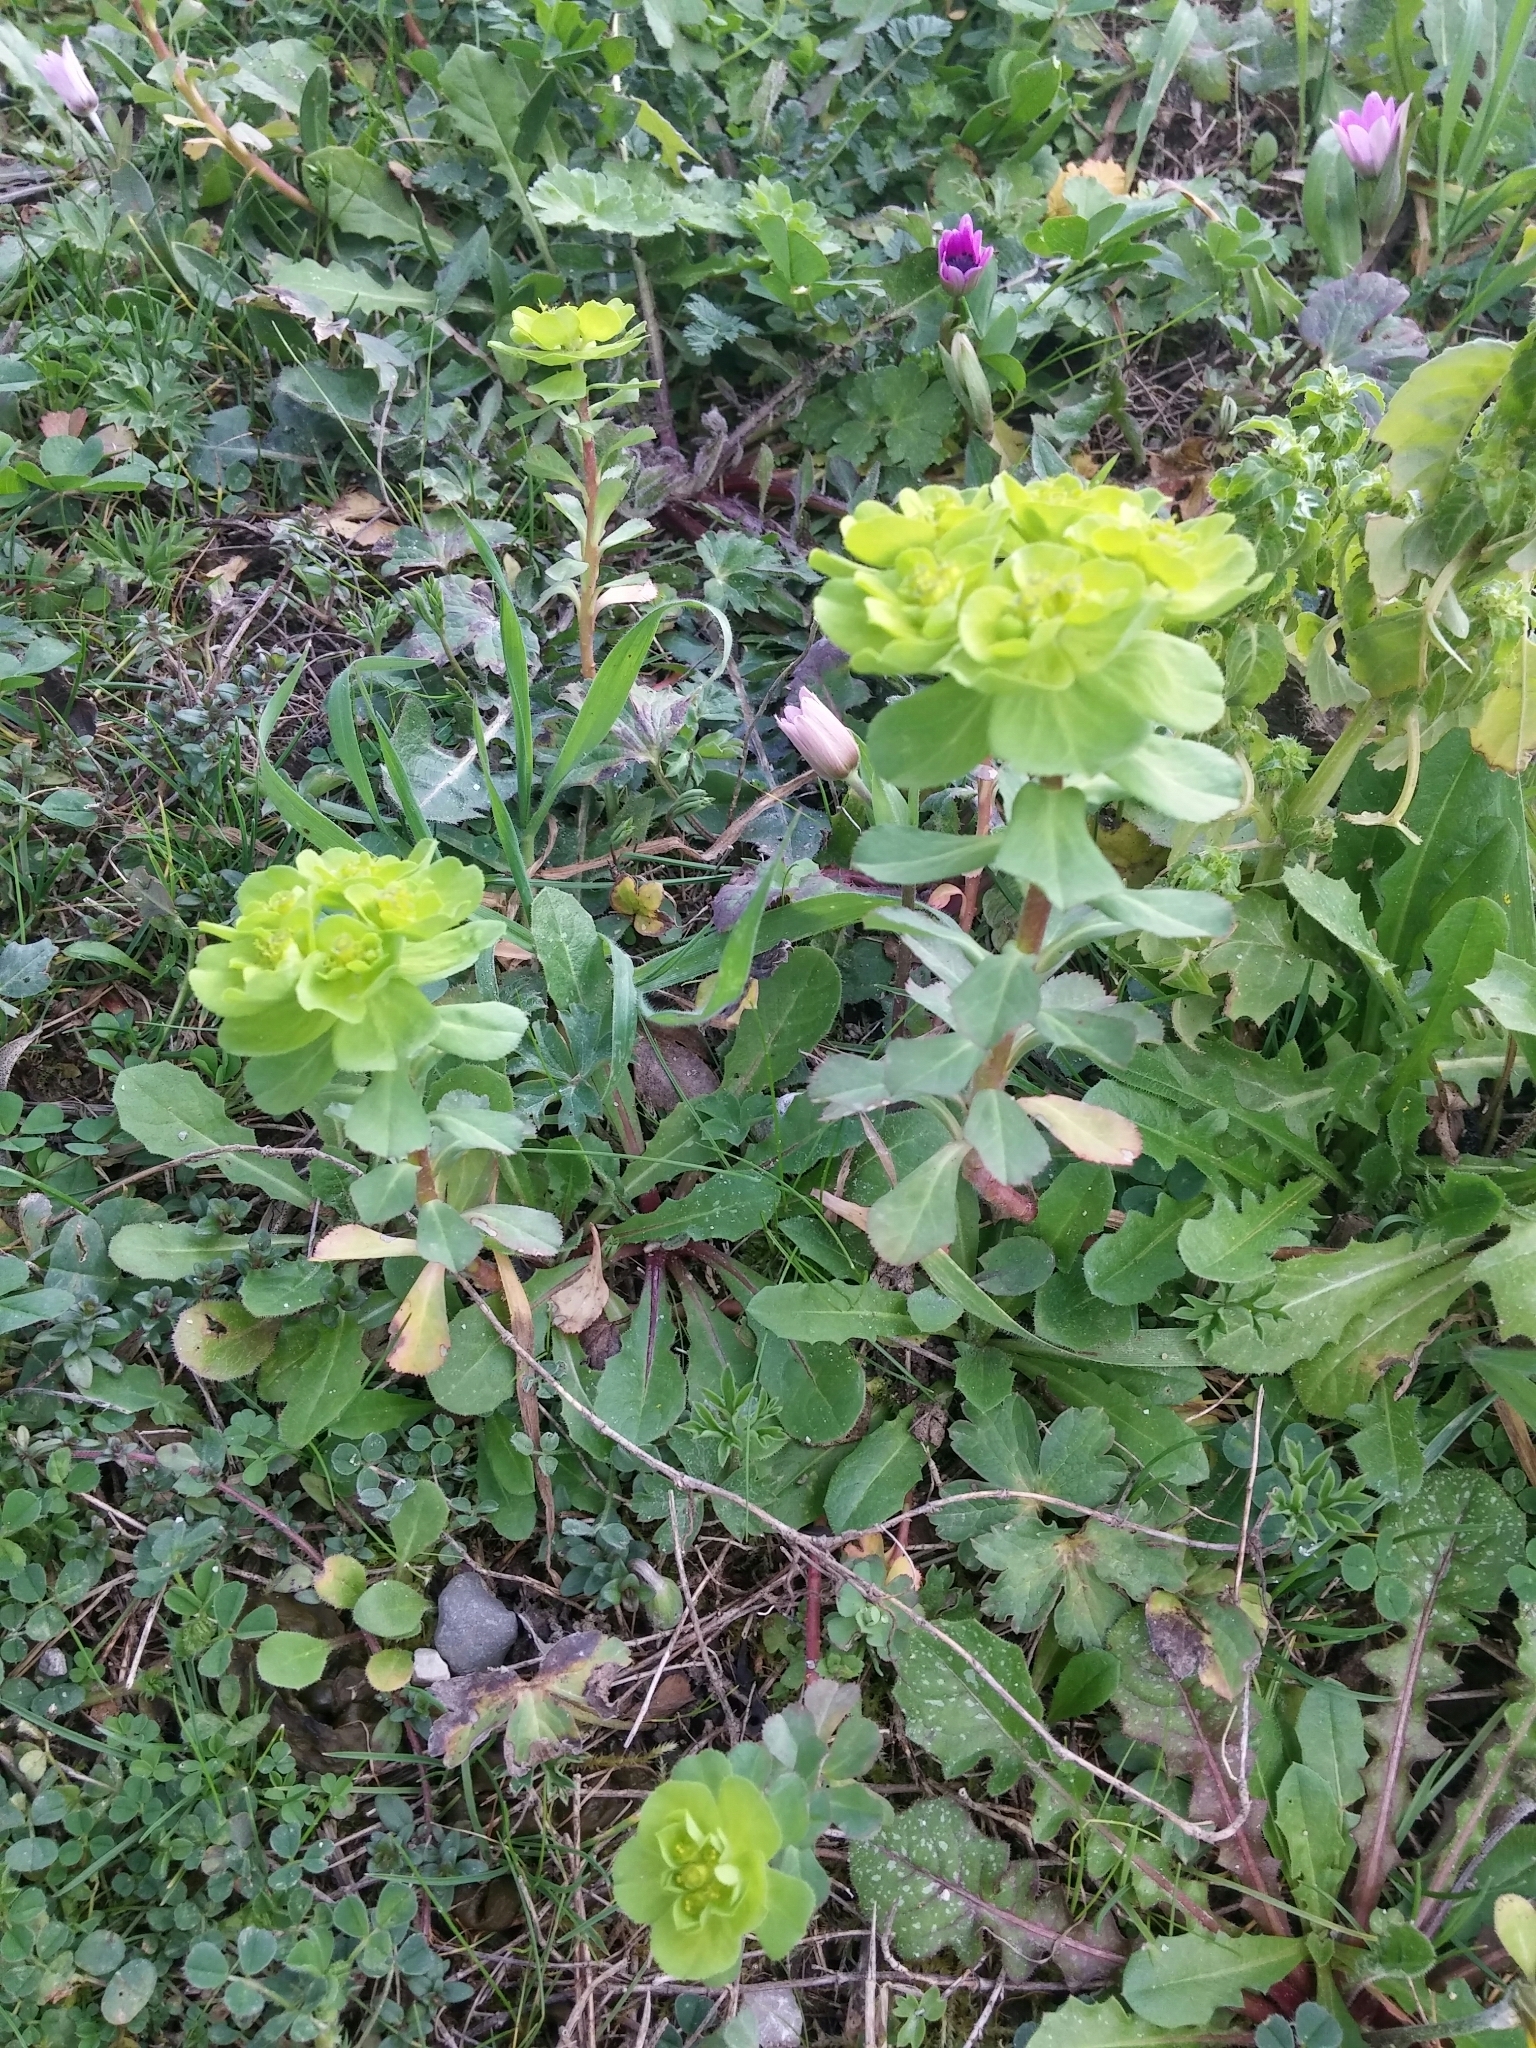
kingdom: Plantae
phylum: Tracheophyta
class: Magnoliopsida
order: Malpighiales
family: Euphorbiaceae
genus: Euphorbia
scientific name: Euphorbia helioscopia
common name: Sun spurge
